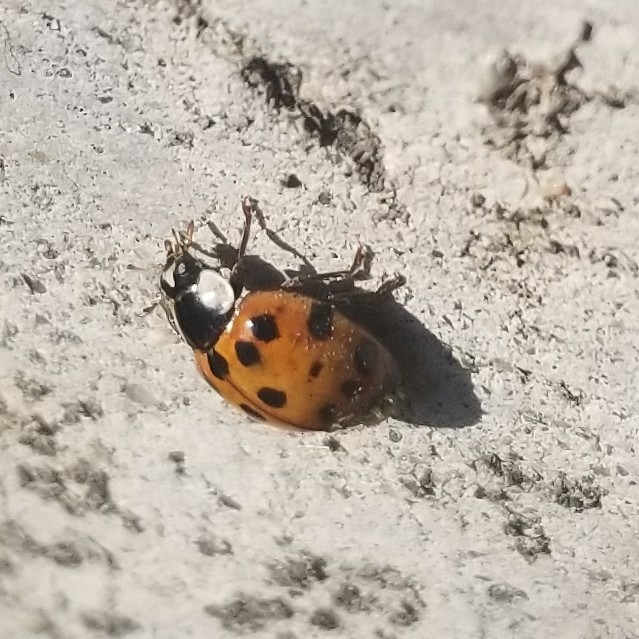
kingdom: Animalia
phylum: Arthropoda
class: Insecta
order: Coleoptera
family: Coccinellidae
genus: Harmonia
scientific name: Harmonia axyridis
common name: Harlequin ladybird
